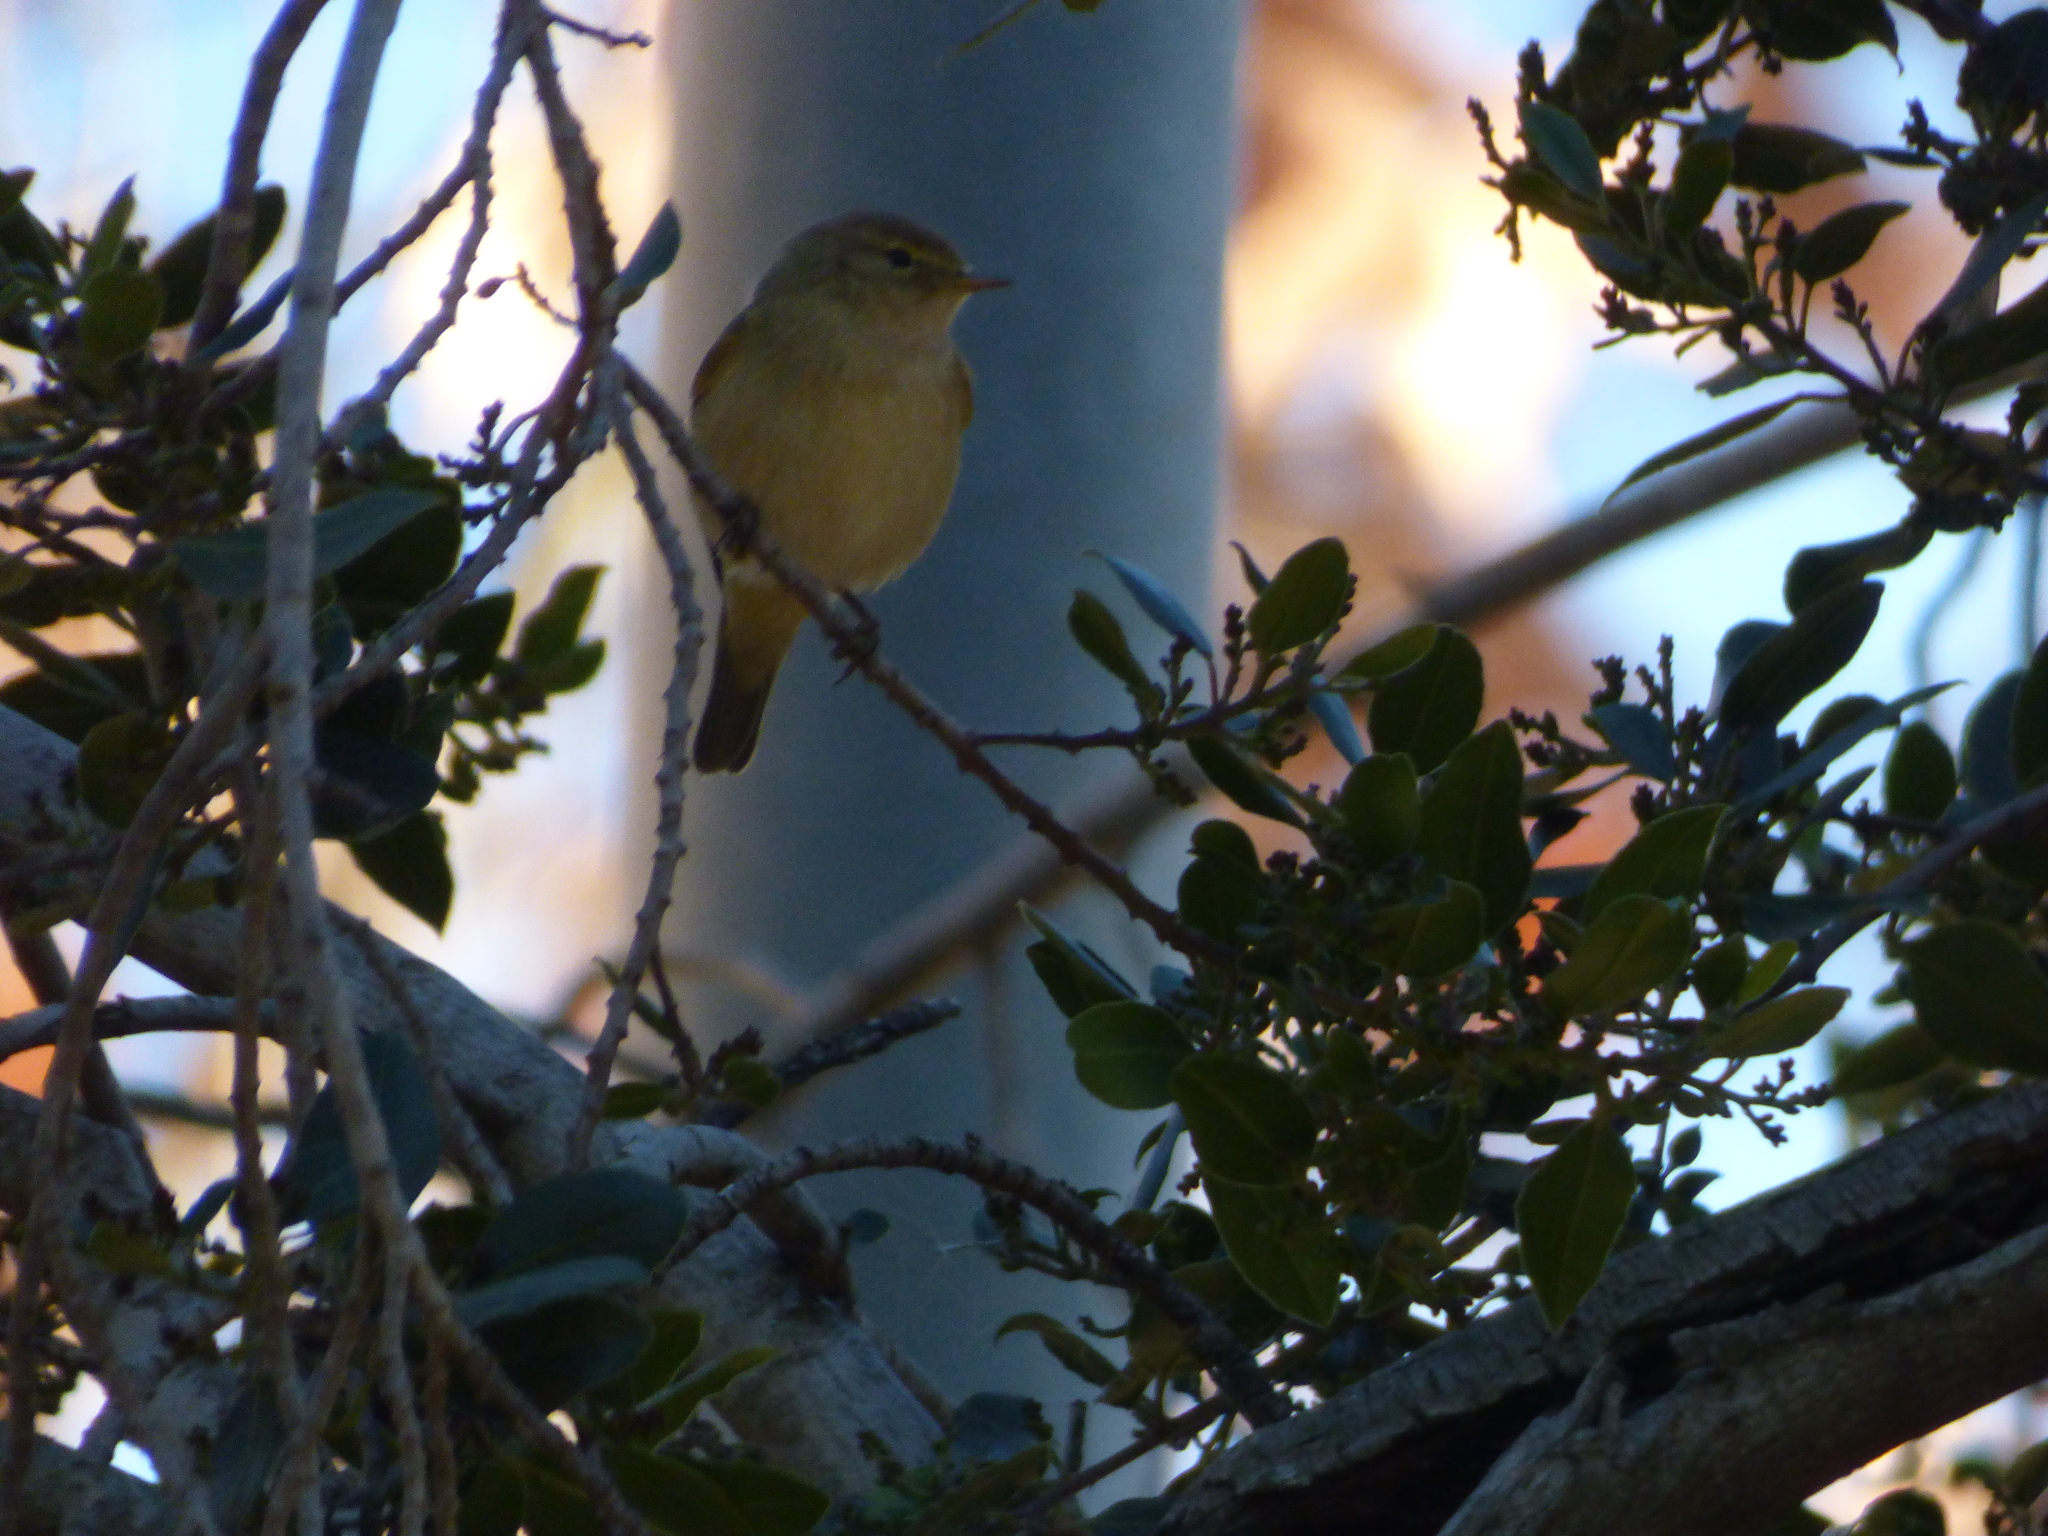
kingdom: Animalia
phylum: Chordata
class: Aves
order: Passeriformes
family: Phylloscopidae
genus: Phylloscopus
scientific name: Phylloscopus collybita
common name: Common chiffchaff
